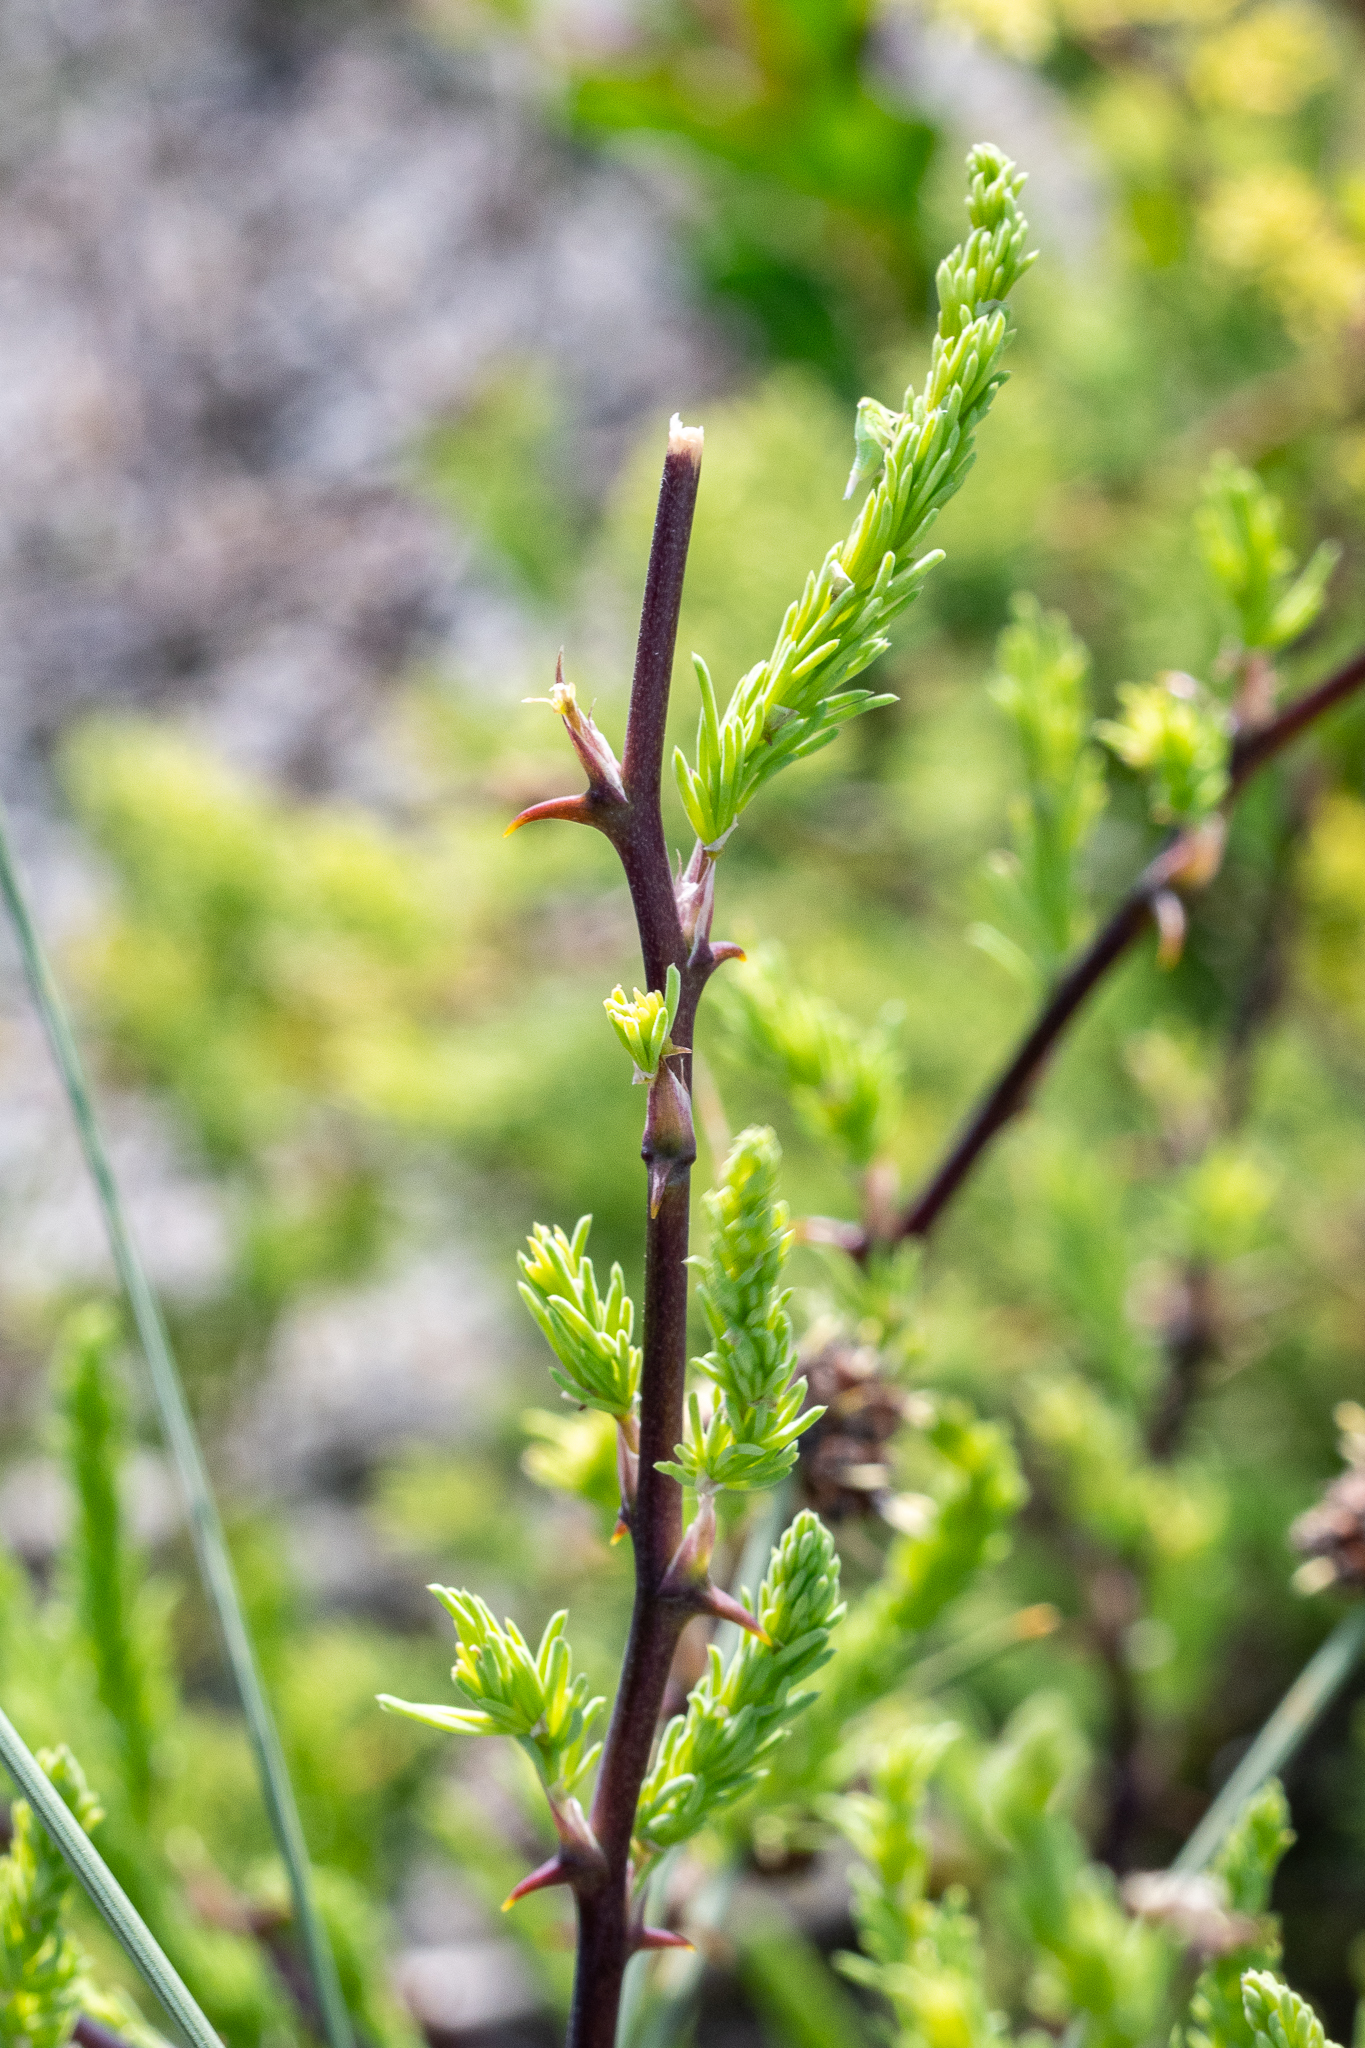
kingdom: Plantae
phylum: Tracheophyta
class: Liliopsida
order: Asparagales
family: Asparagaceae
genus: Asparagus
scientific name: Asparagus rubicundus
